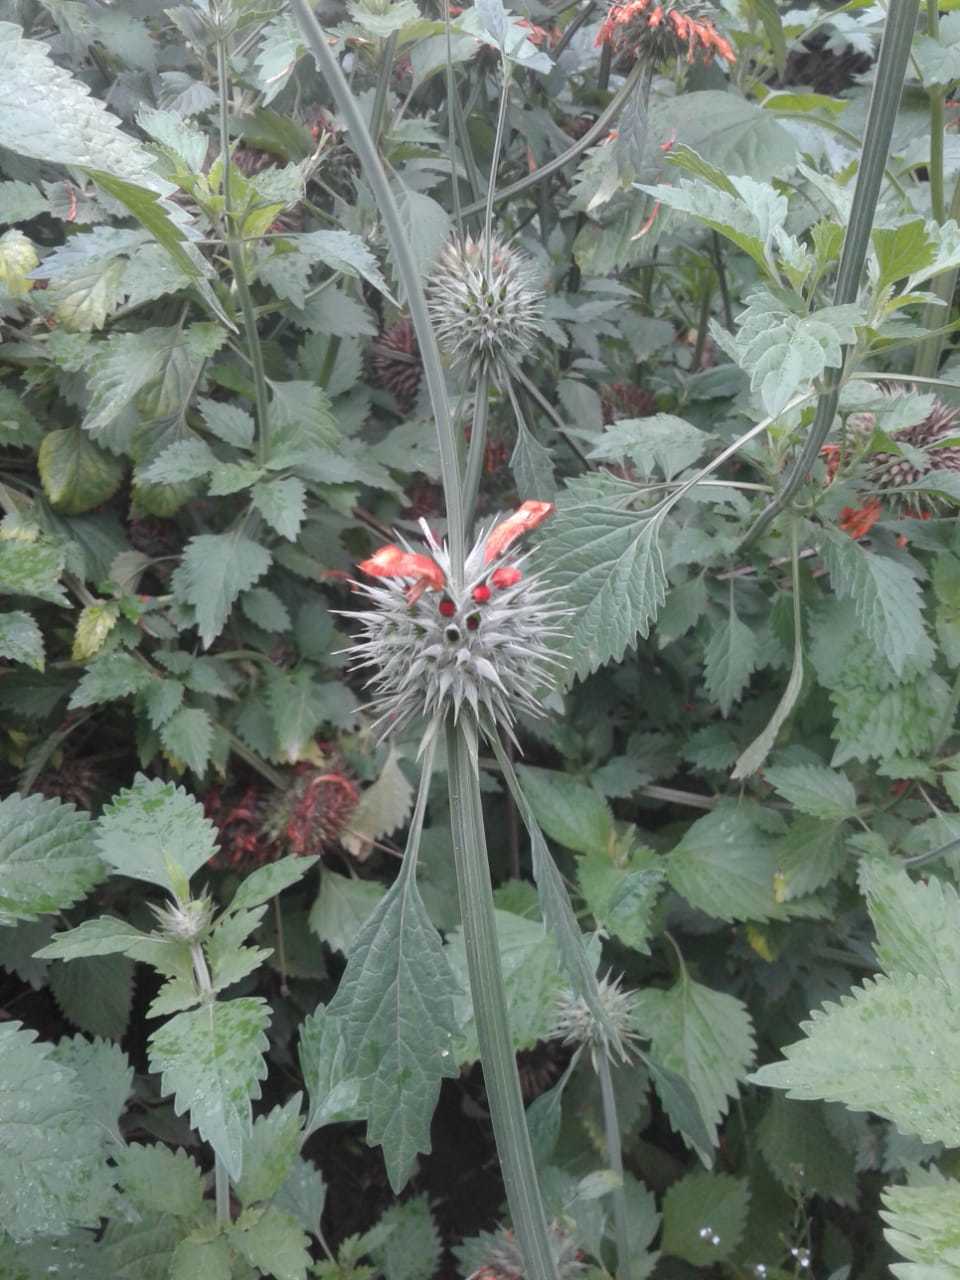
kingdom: Plantae
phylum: Tracheophyta
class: Magnoliopsida
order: Lamiales
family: Lamiaceae
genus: Leonotis
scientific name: Leonotis nepetifolia
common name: Christmas candlestick
